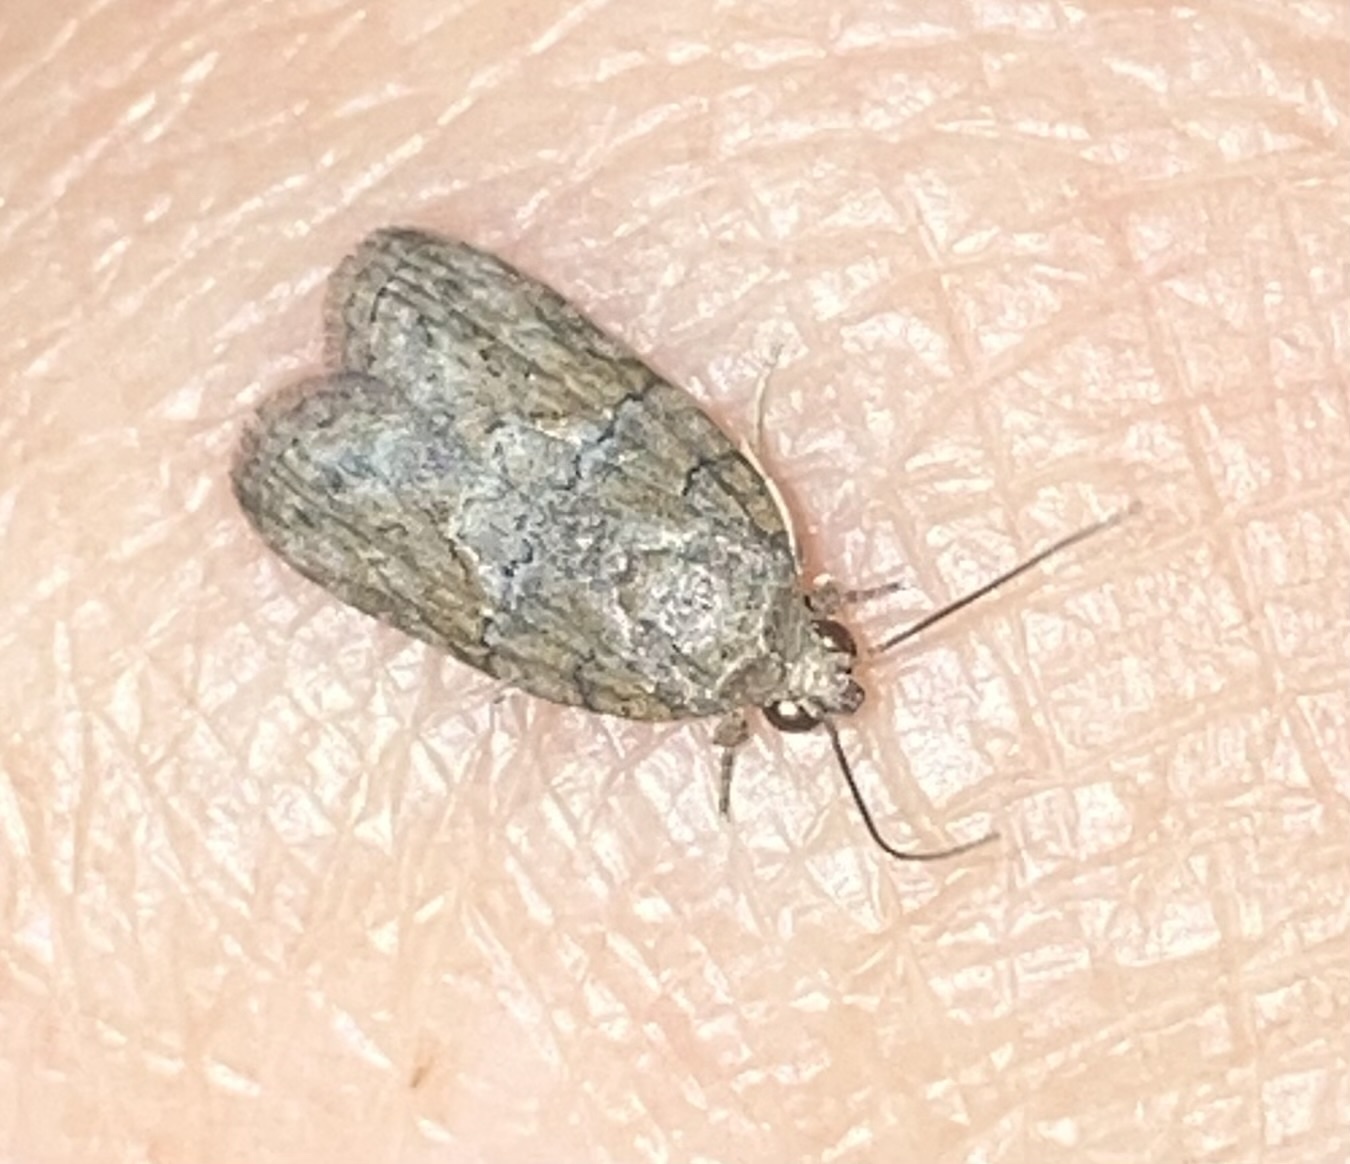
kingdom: Animalia
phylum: Arthropoda
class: Insecta
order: Lepidoptera
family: Nolidae
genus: Garella
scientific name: Garella nilotica
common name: Black-olive caterpillar moth
